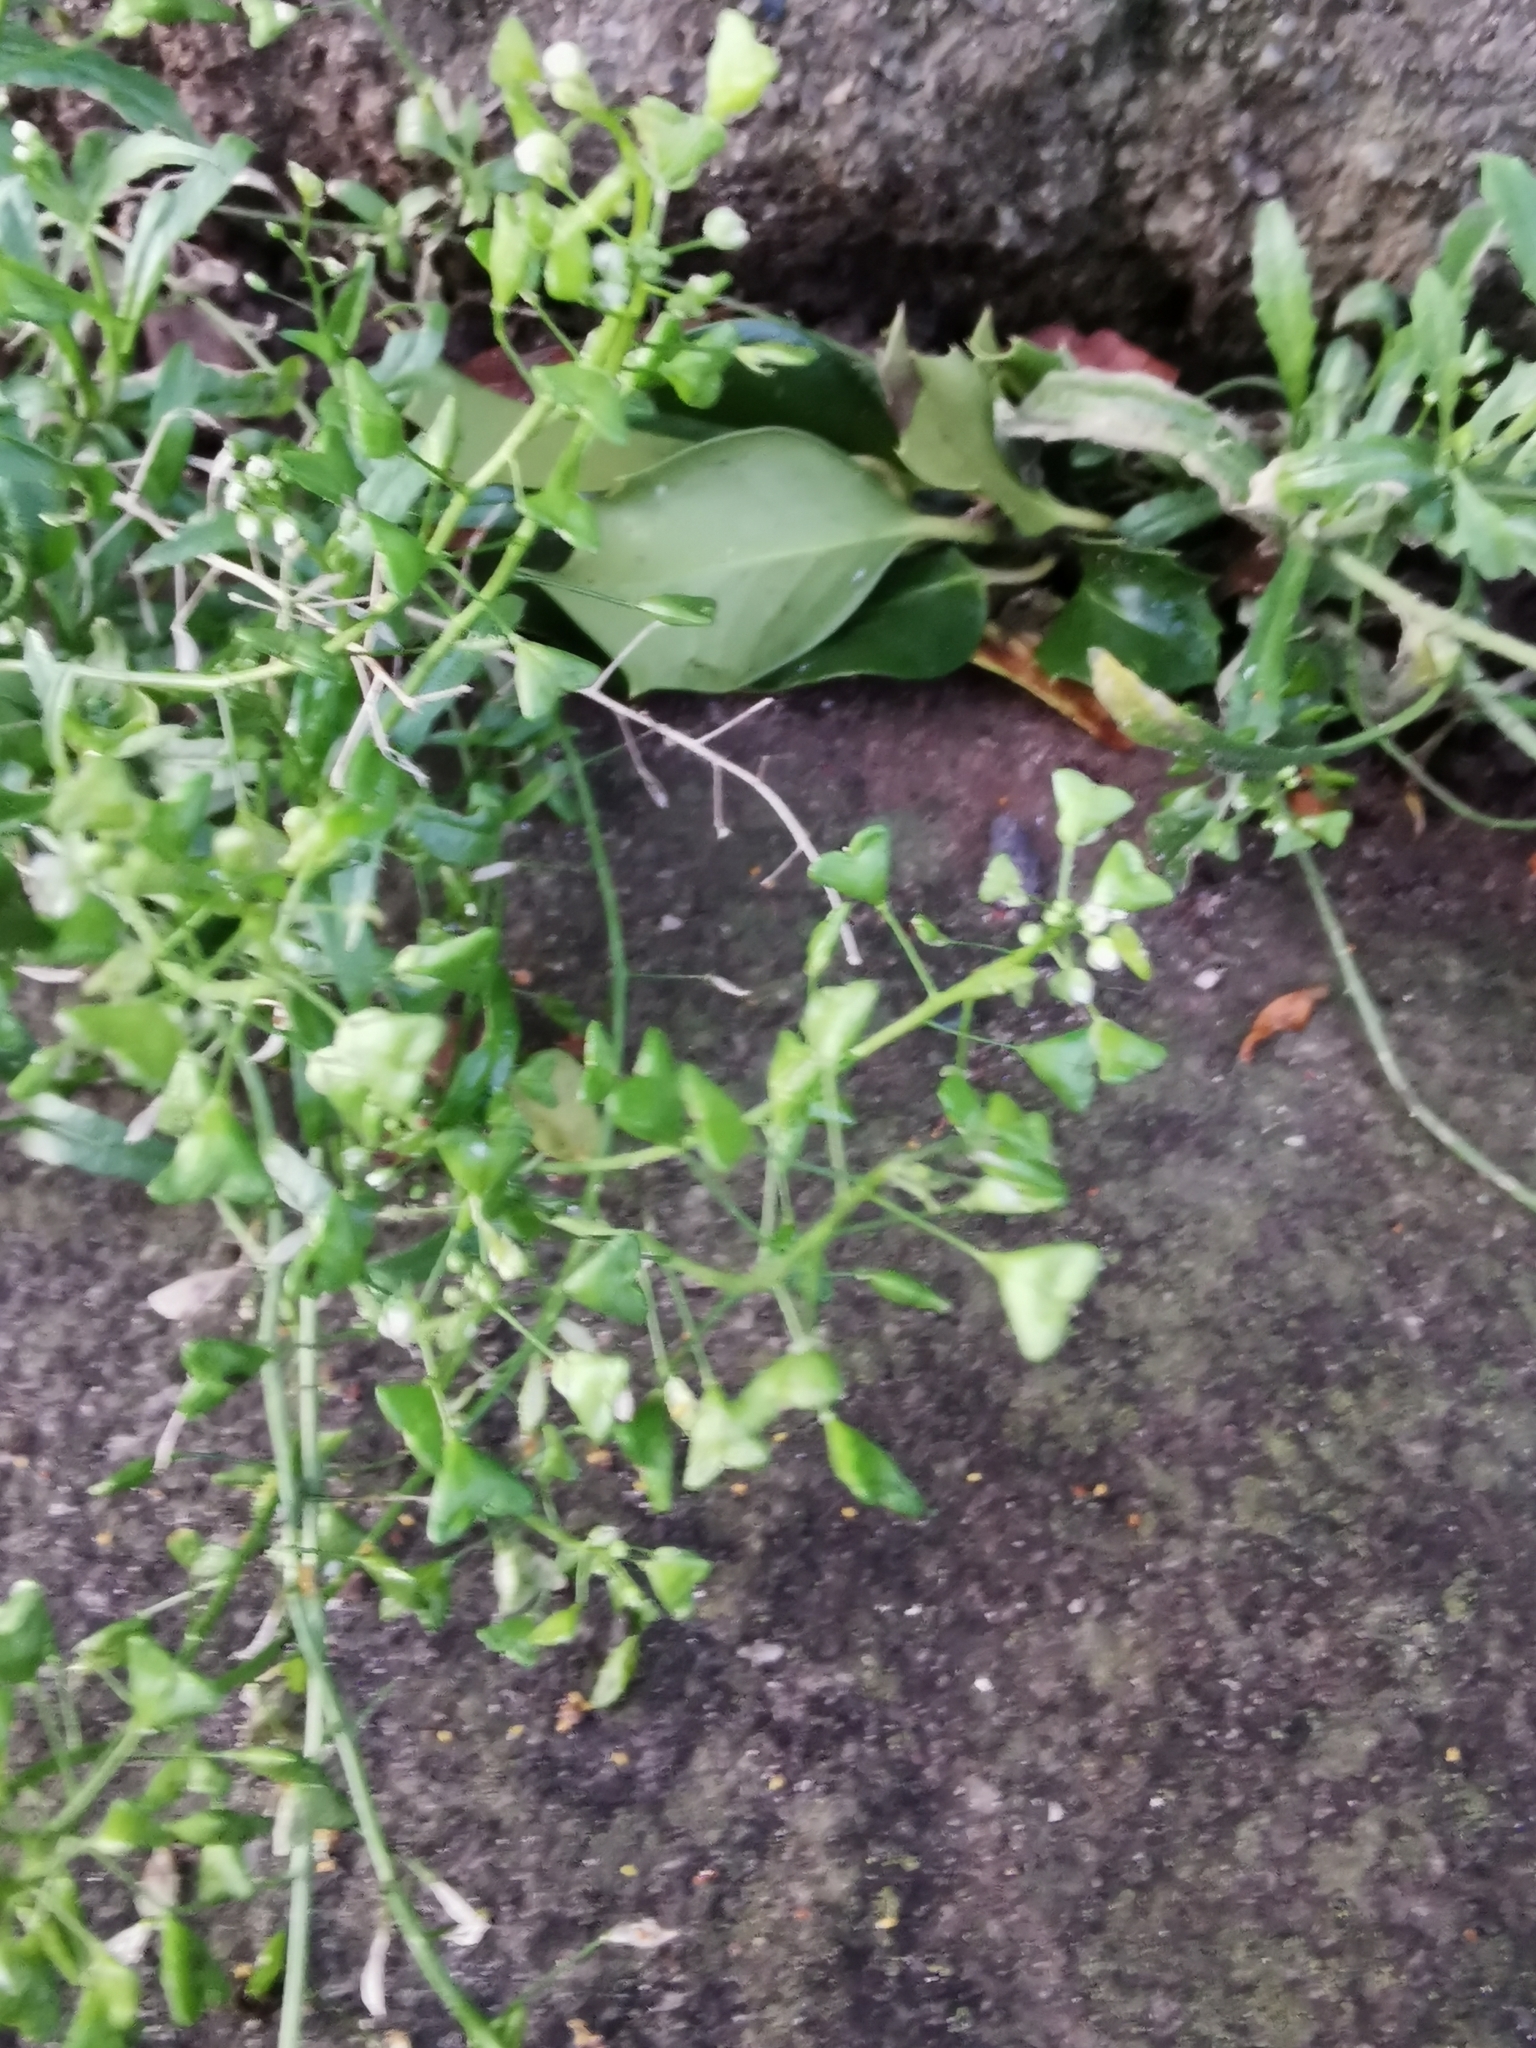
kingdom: Plantae
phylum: Tracheophyta
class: Magnoliopsida
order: Brassicales
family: Brassicaceae
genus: Capsella
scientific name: Capsella bursa-pastoris
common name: Shepherd's purse
